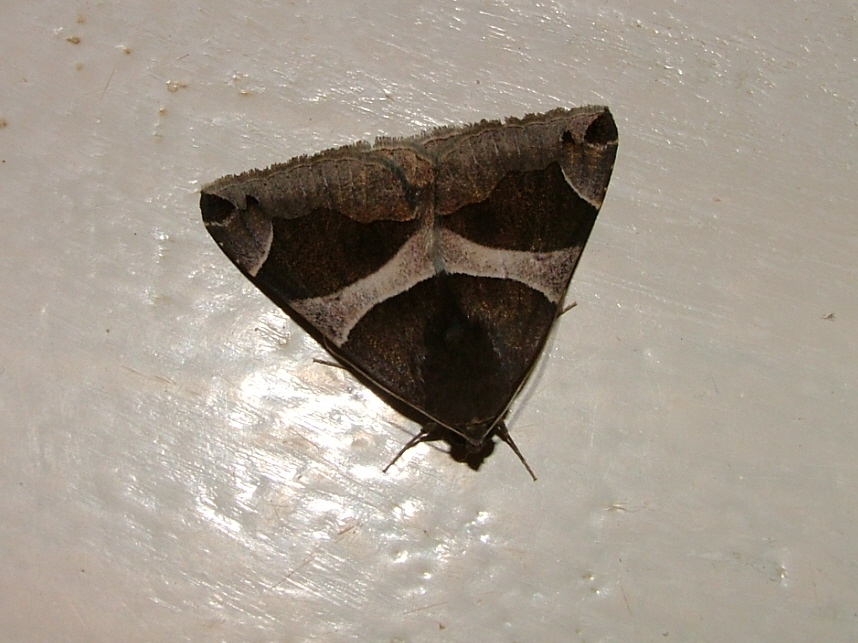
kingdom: Animalia
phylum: Arthropoda
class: Insecta
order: Lepidoptera
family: Erebidae
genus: Dysgonia
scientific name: Dysgonia properans
